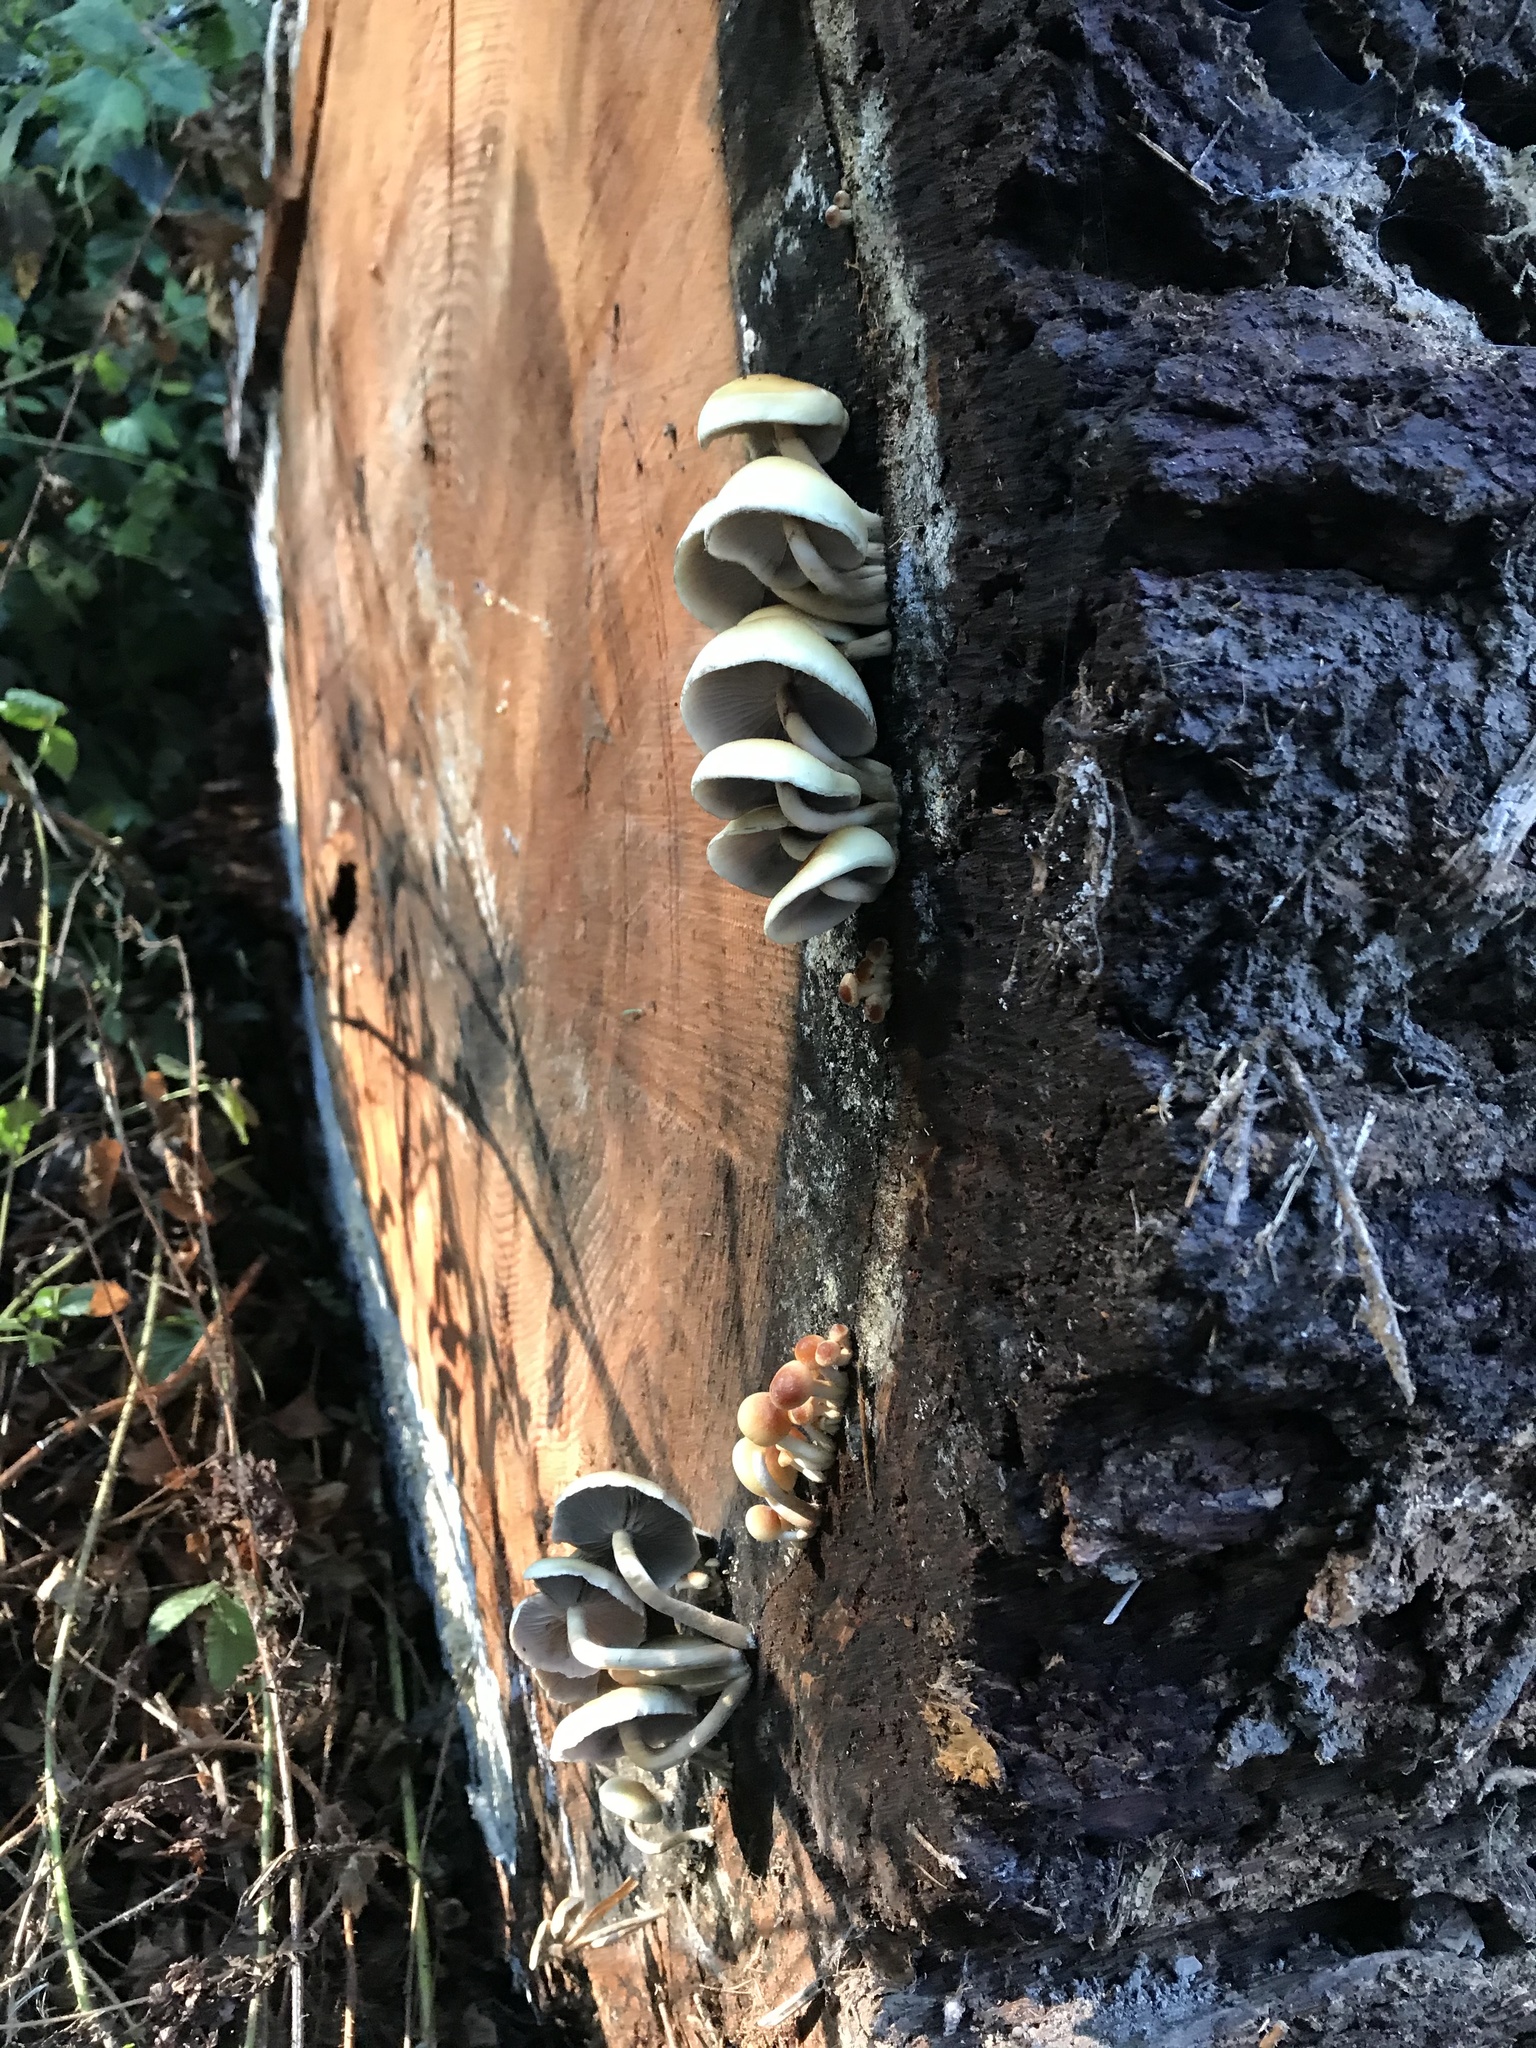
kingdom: Fungi
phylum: Basidiomycota
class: Agaricomycetes
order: Agaricales
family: Strophariaceae
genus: Hypholoma
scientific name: Hypholoma capnoides
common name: Conifer tuft
